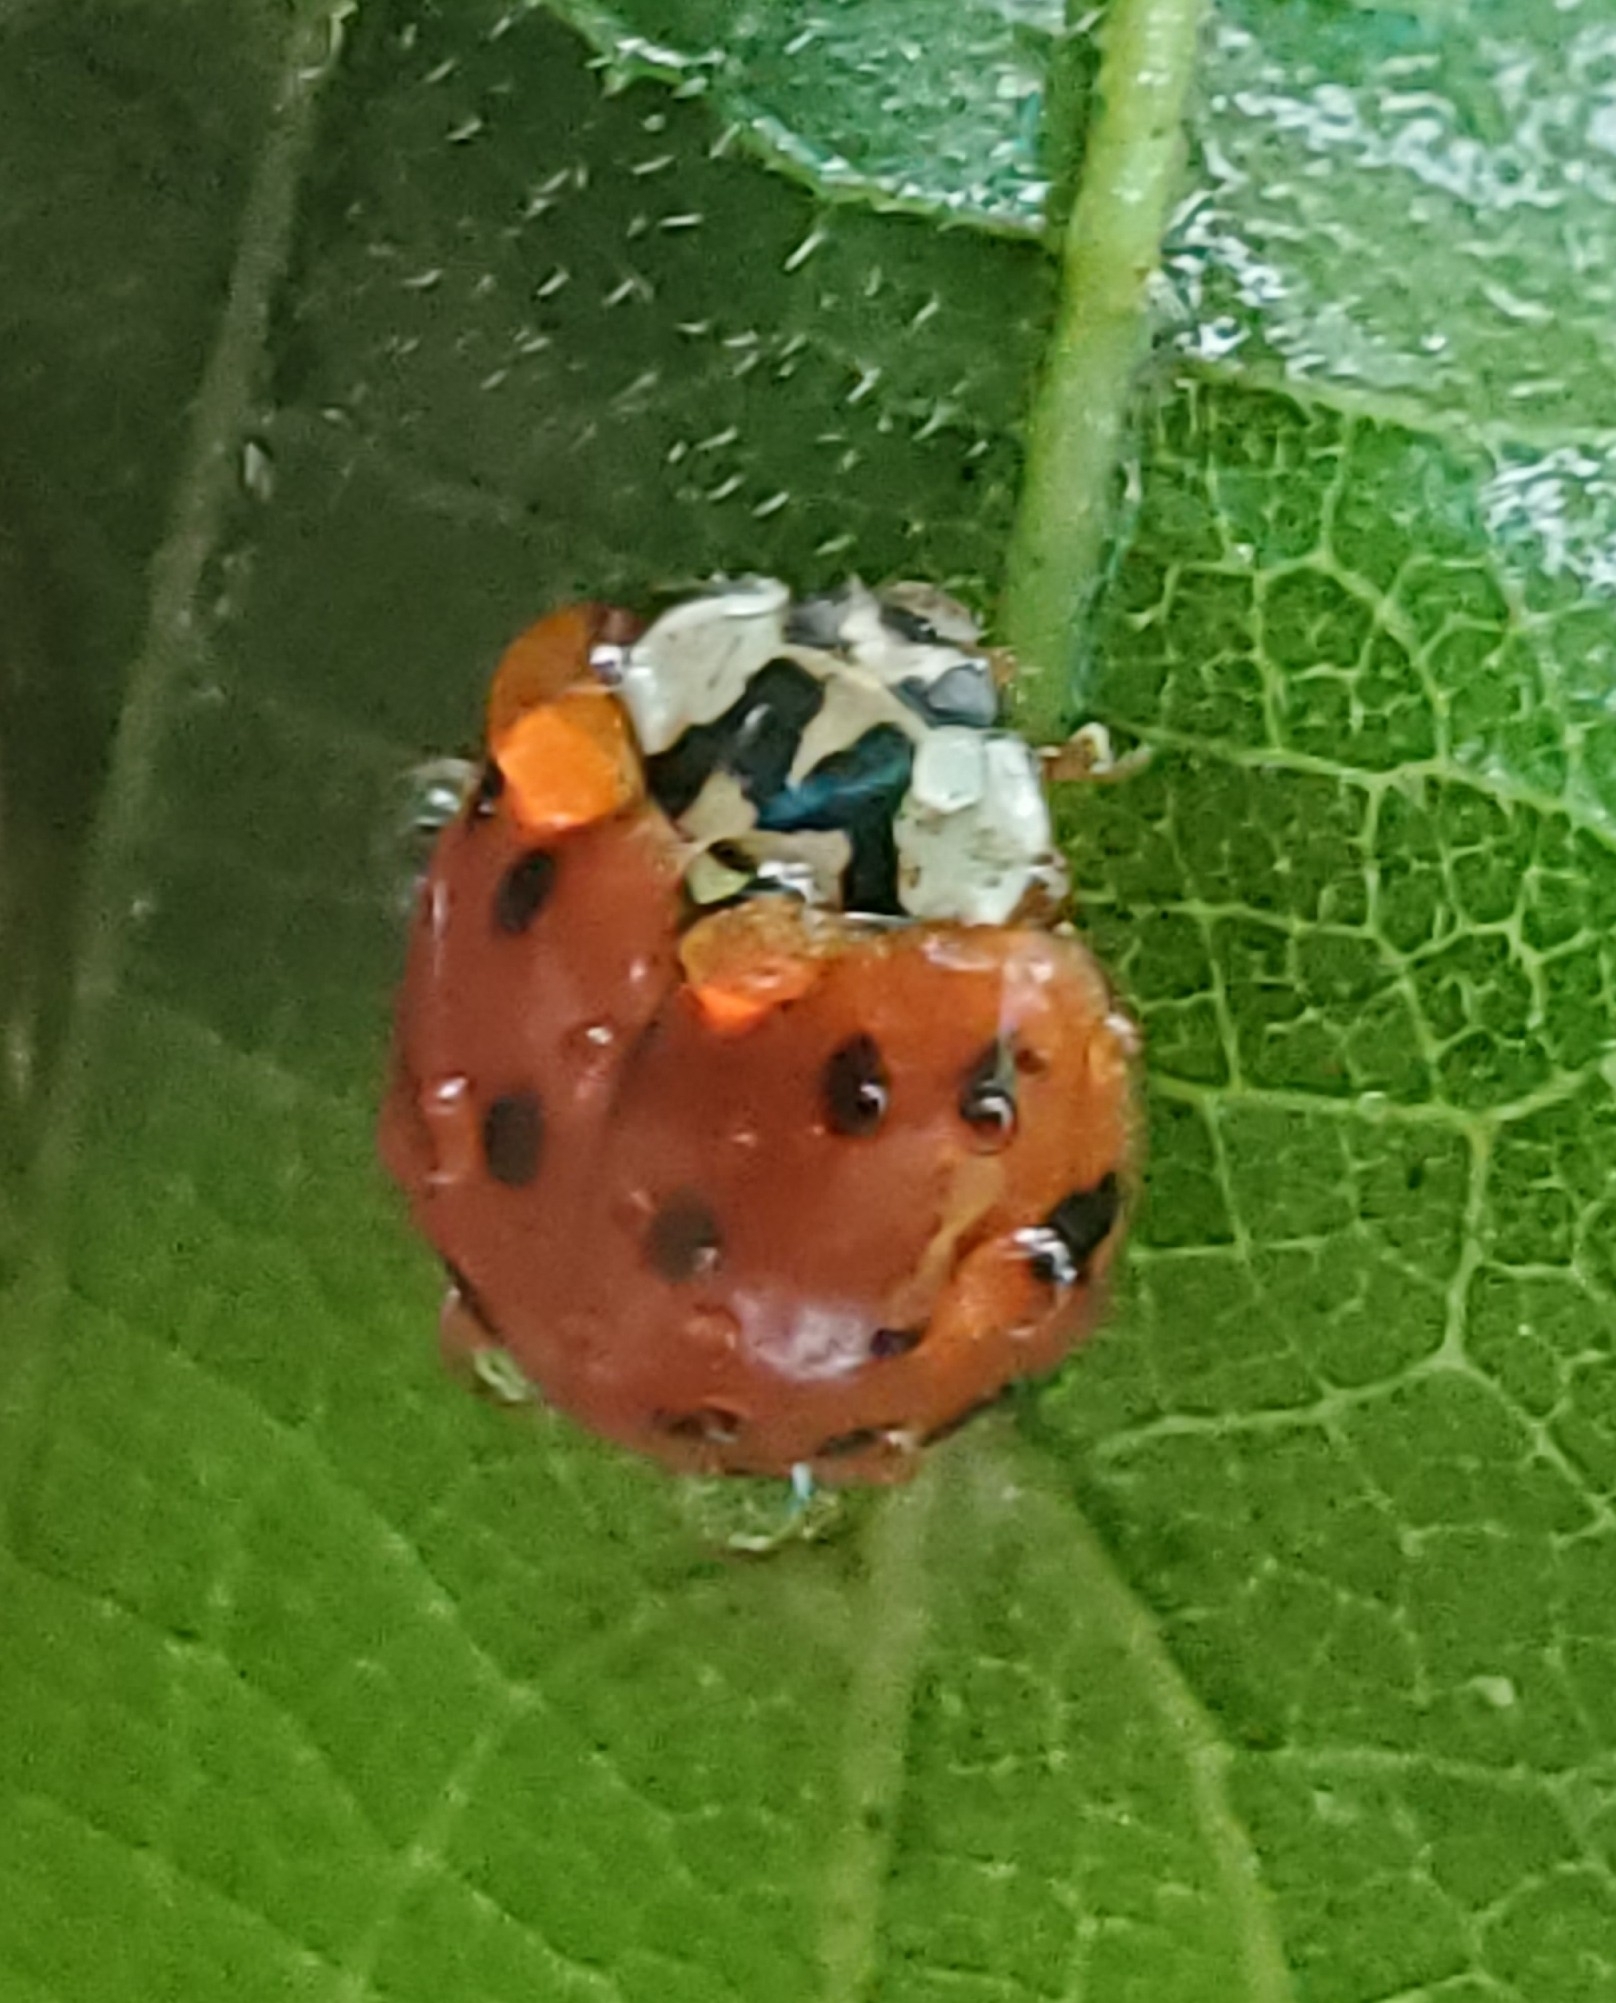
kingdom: Animalia
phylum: Arthropoda
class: Insecta
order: Coleoptera
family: Coccinellidae
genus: Harmonia
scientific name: Harmonia axyridis
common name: Harlequin ladybird
